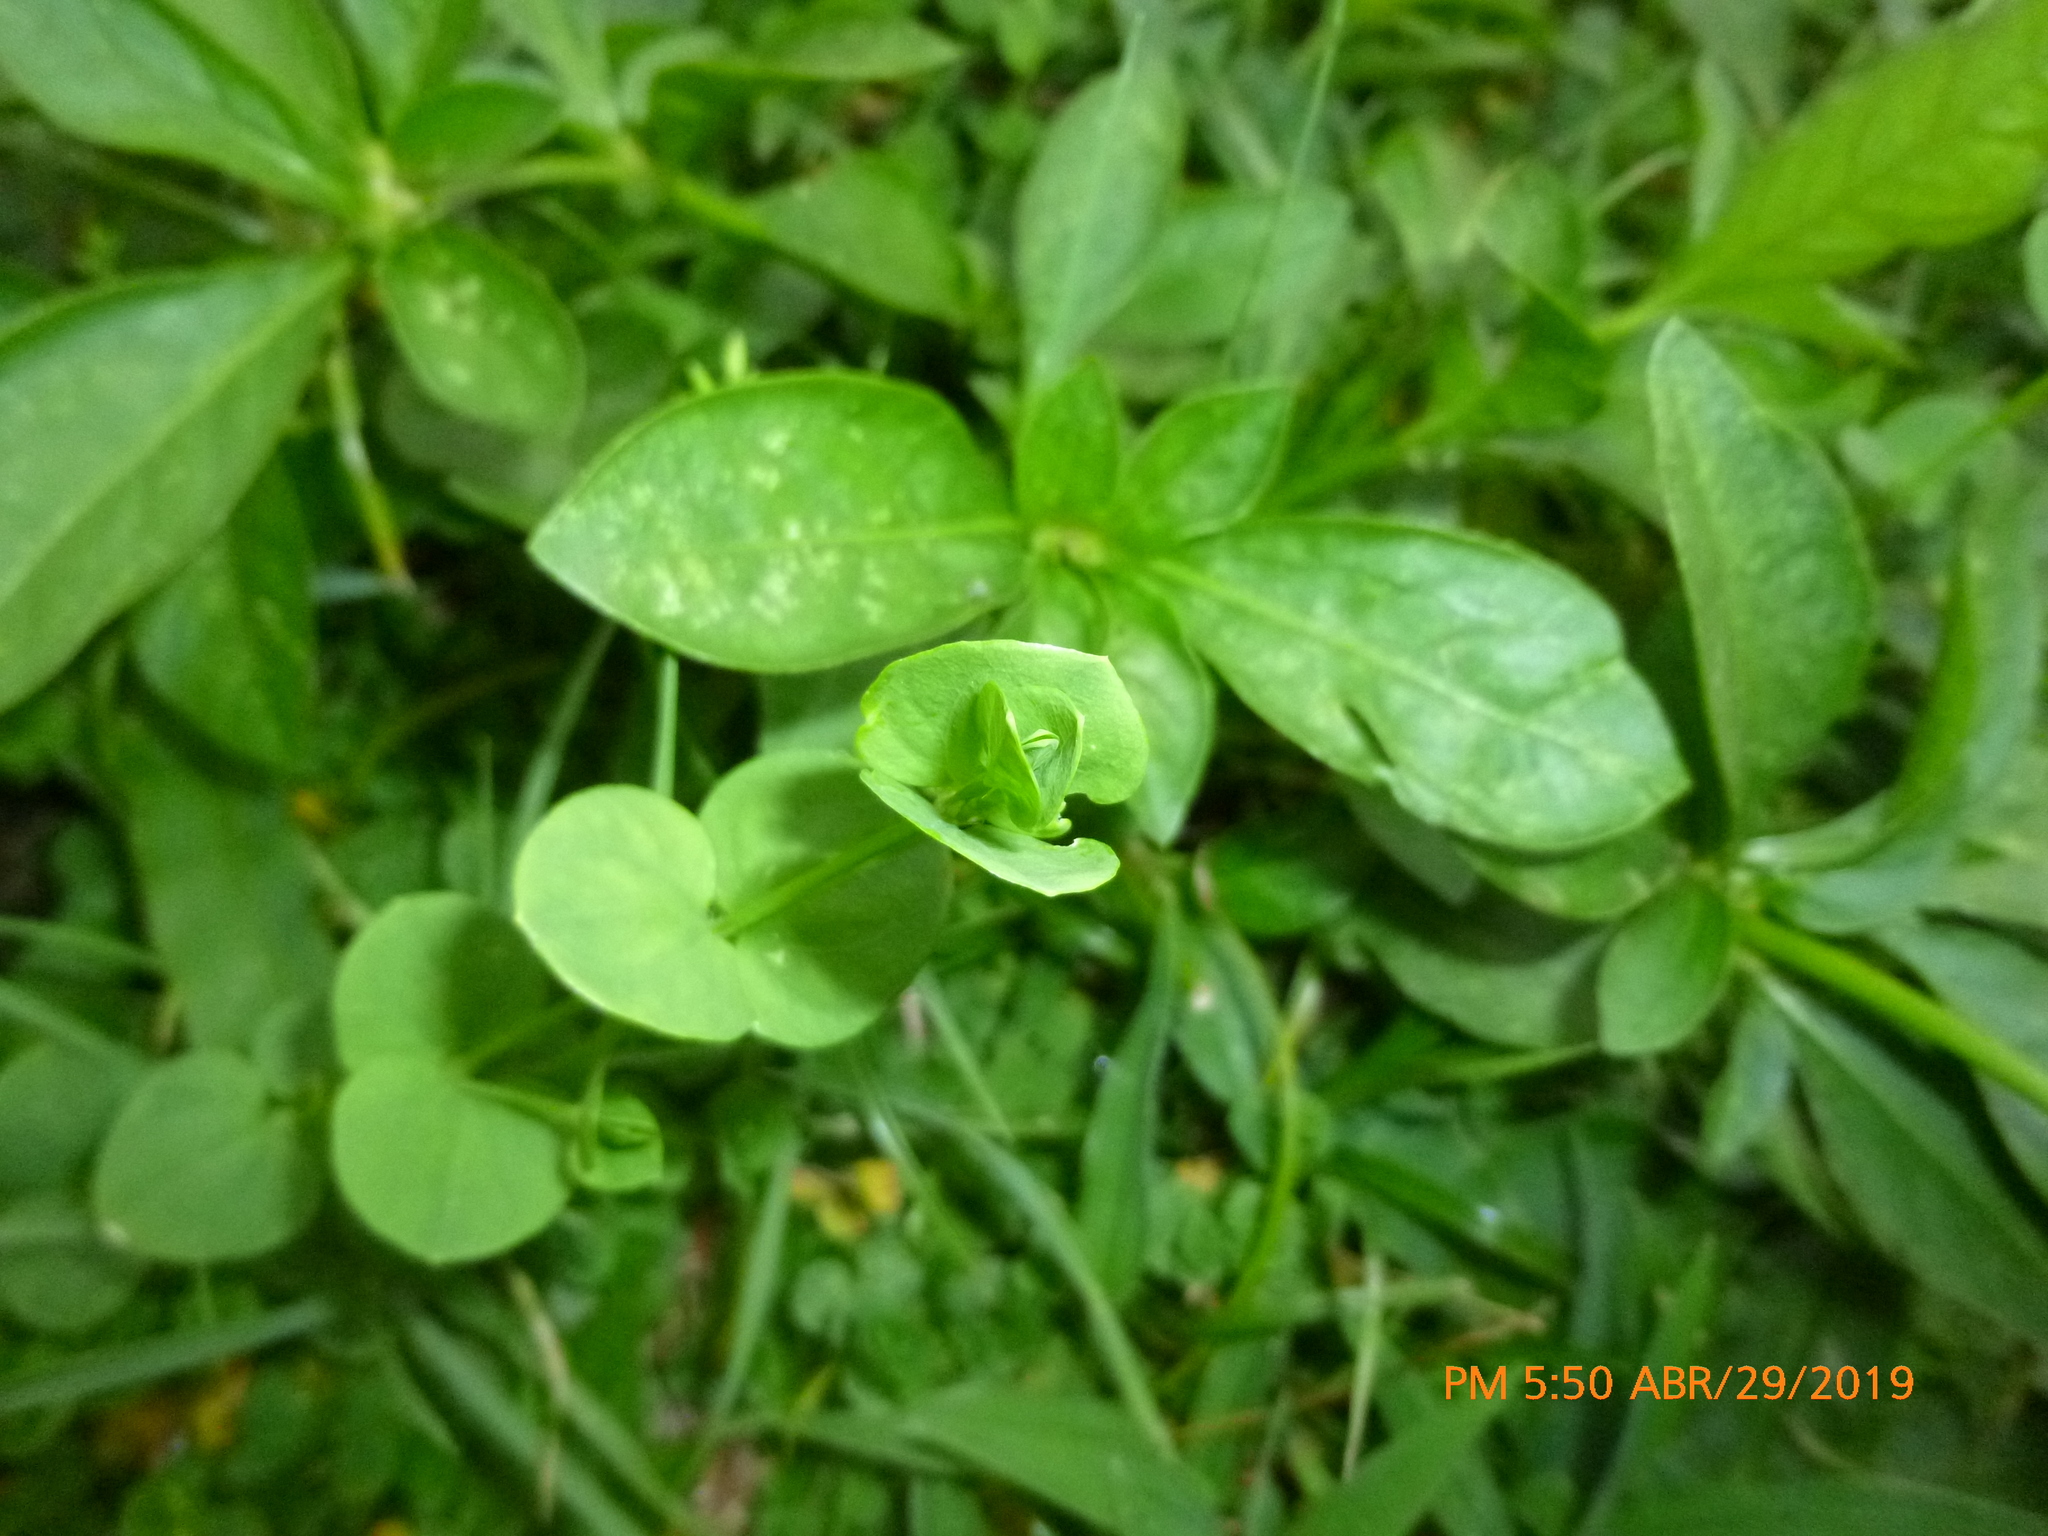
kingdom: Plantae
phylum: Tracheophyta
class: Magnoliopsida
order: Caryophyllales
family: Caryophyllaceae
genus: Drymaria
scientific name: Drymaria cordata
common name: Whitesnow
